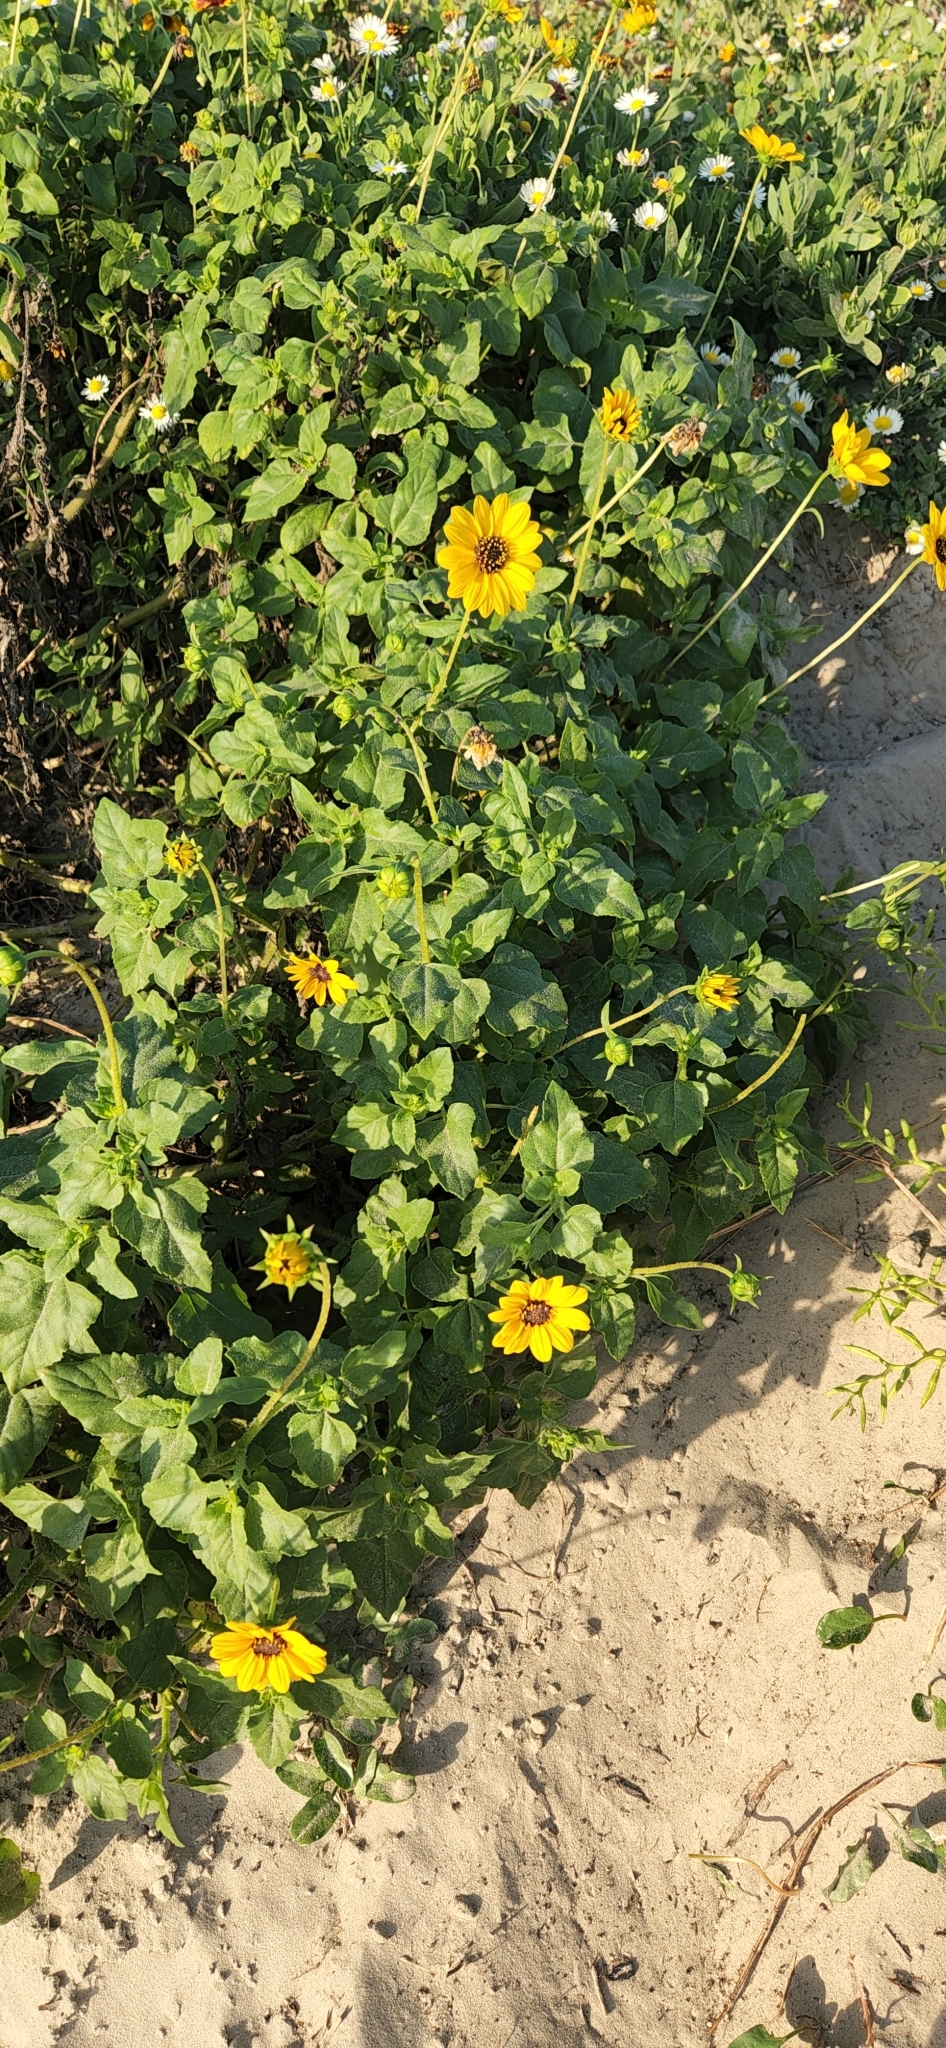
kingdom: Plantae
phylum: Tracheophyta
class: Magnoliopsida
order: Asterales
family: Asteraceae
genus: Helianthus
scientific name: Helianthus debilis
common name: Weak sunflower
